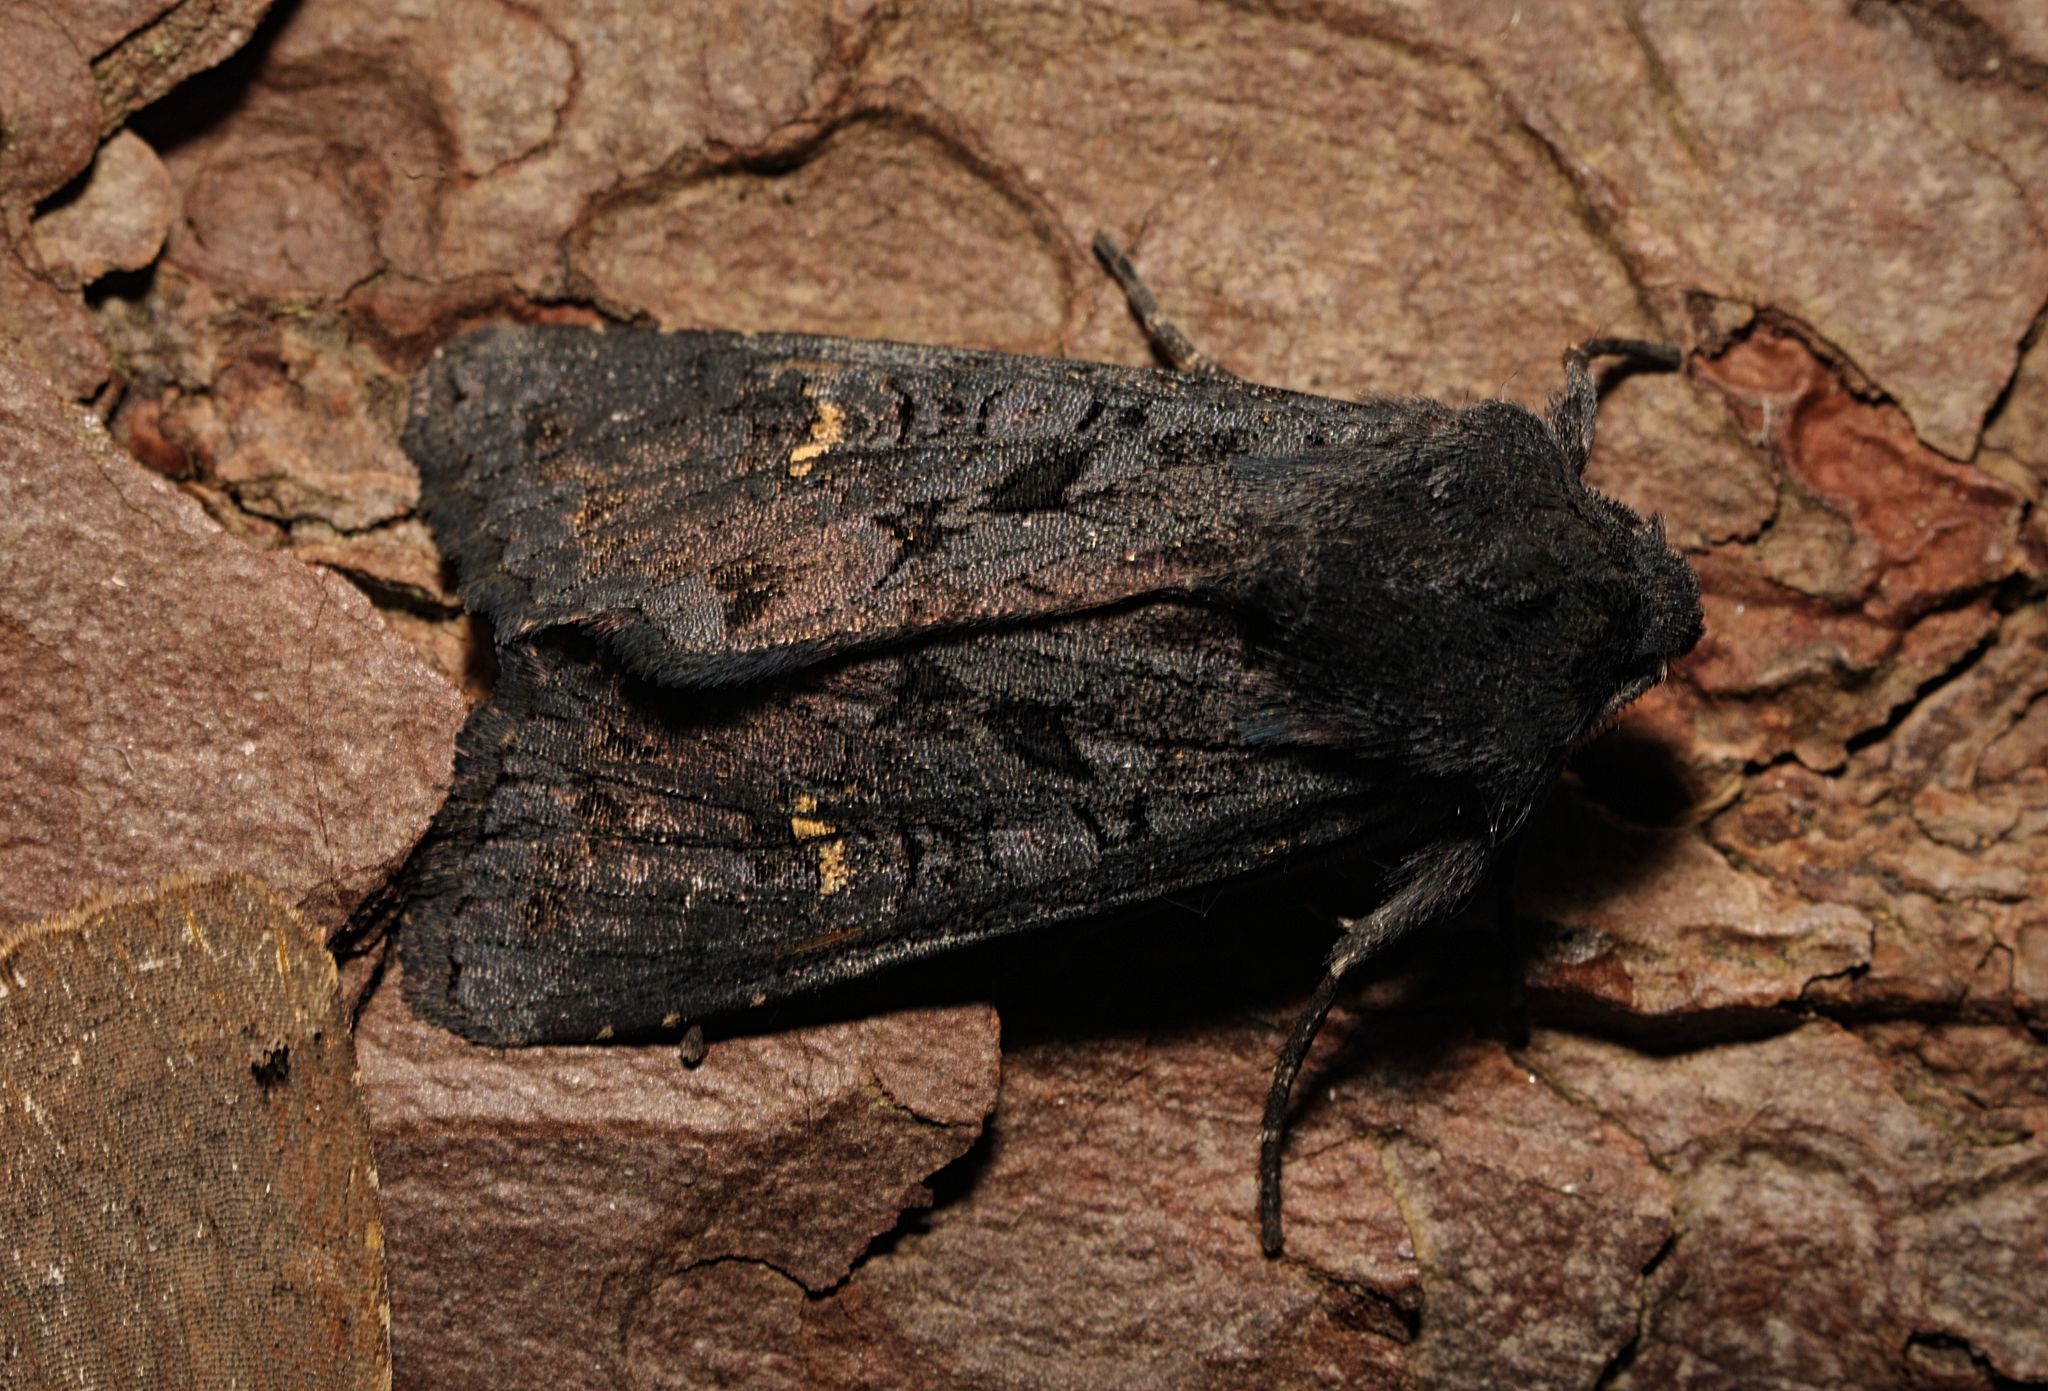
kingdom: Animalia
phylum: Arthropoda
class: Insecta
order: Lepidoptera
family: Noctuidae
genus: Aporophyla
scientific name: Aporophyla nigra
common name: Black rustic
